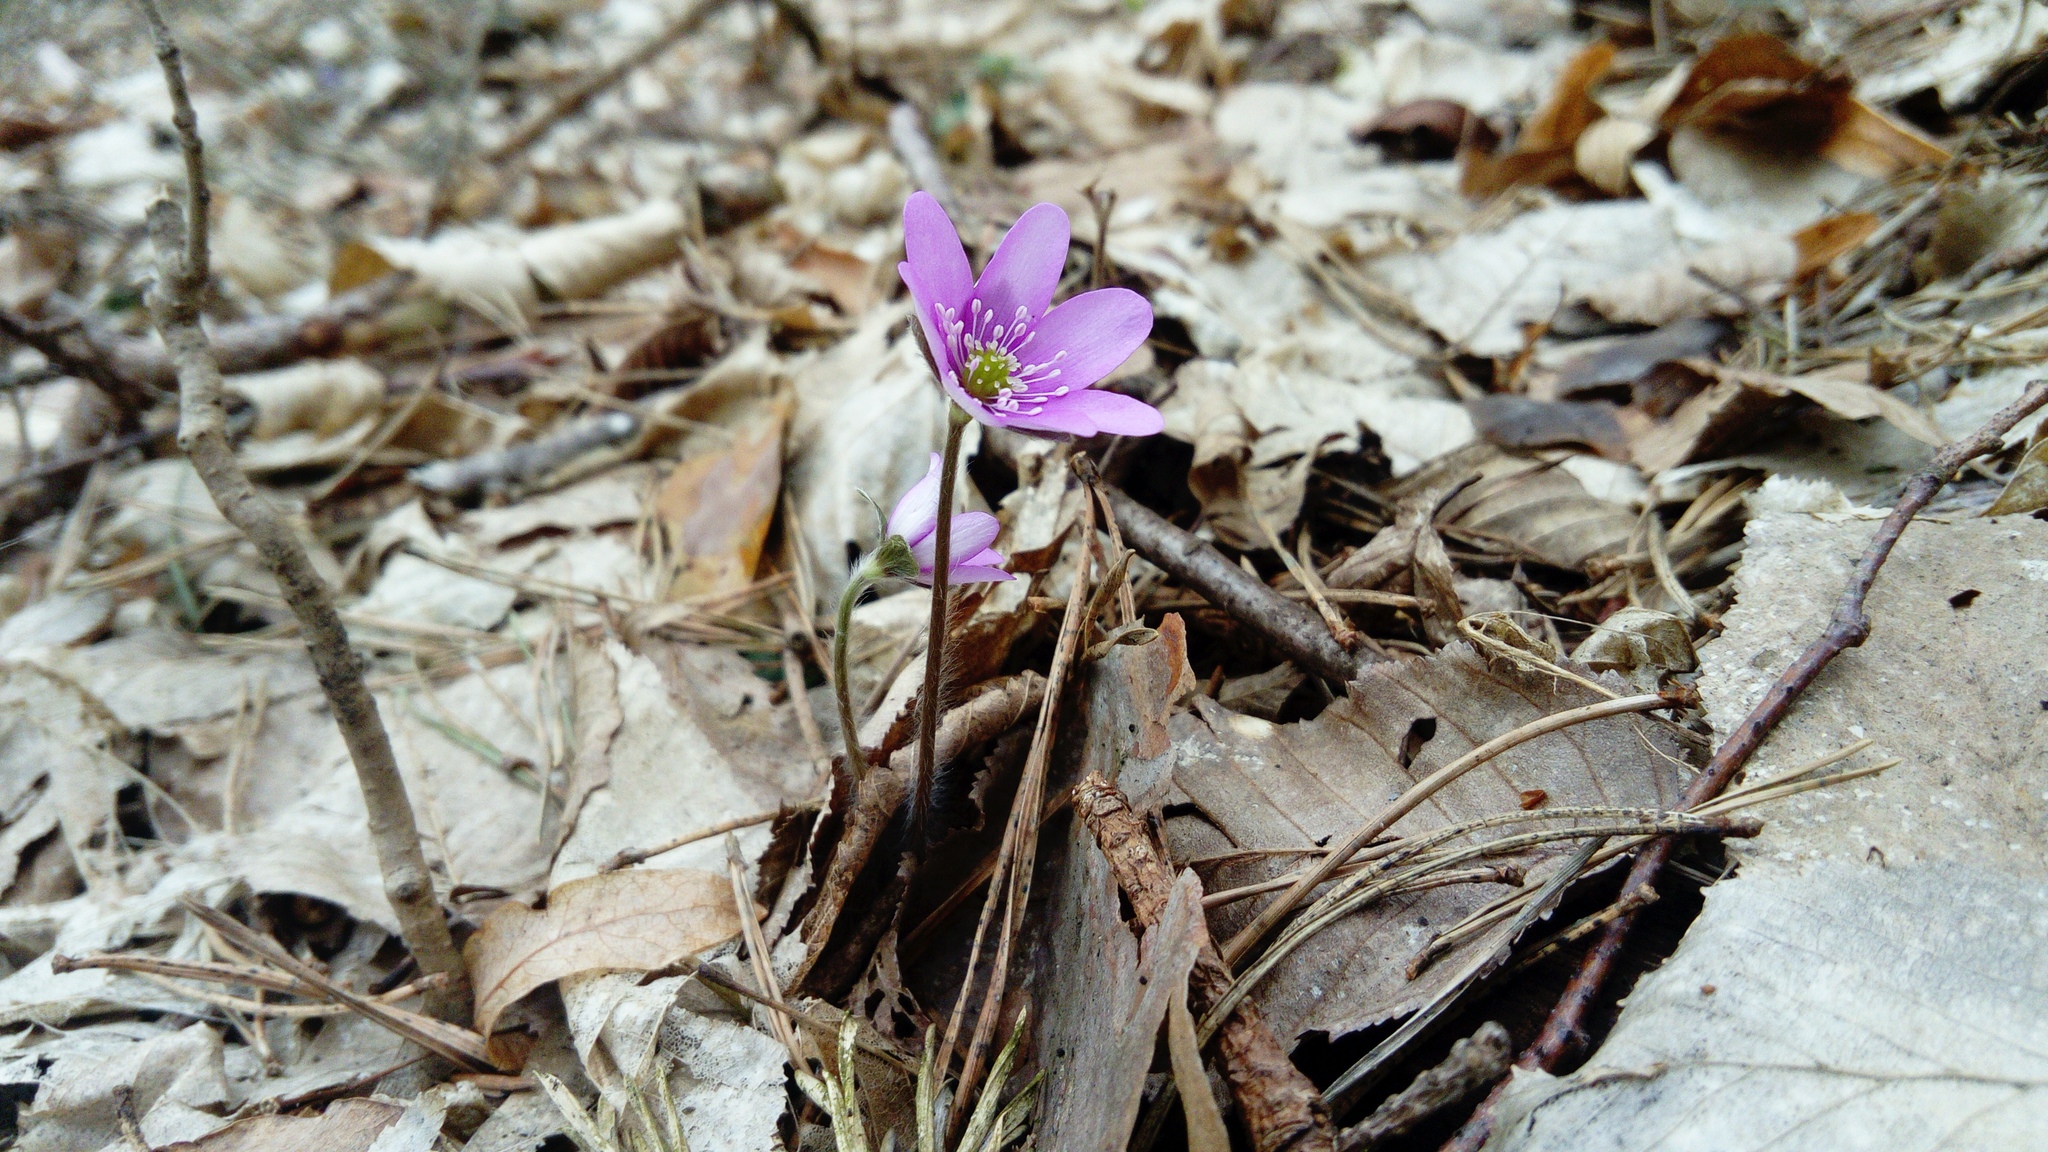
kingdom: Plantae
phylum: Tracheophyta
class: Magnoliopsida
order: Ranunculales
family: Ranunculaceae
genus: Hepatica
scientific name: Hepatica nobilis
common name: Liverleaf
